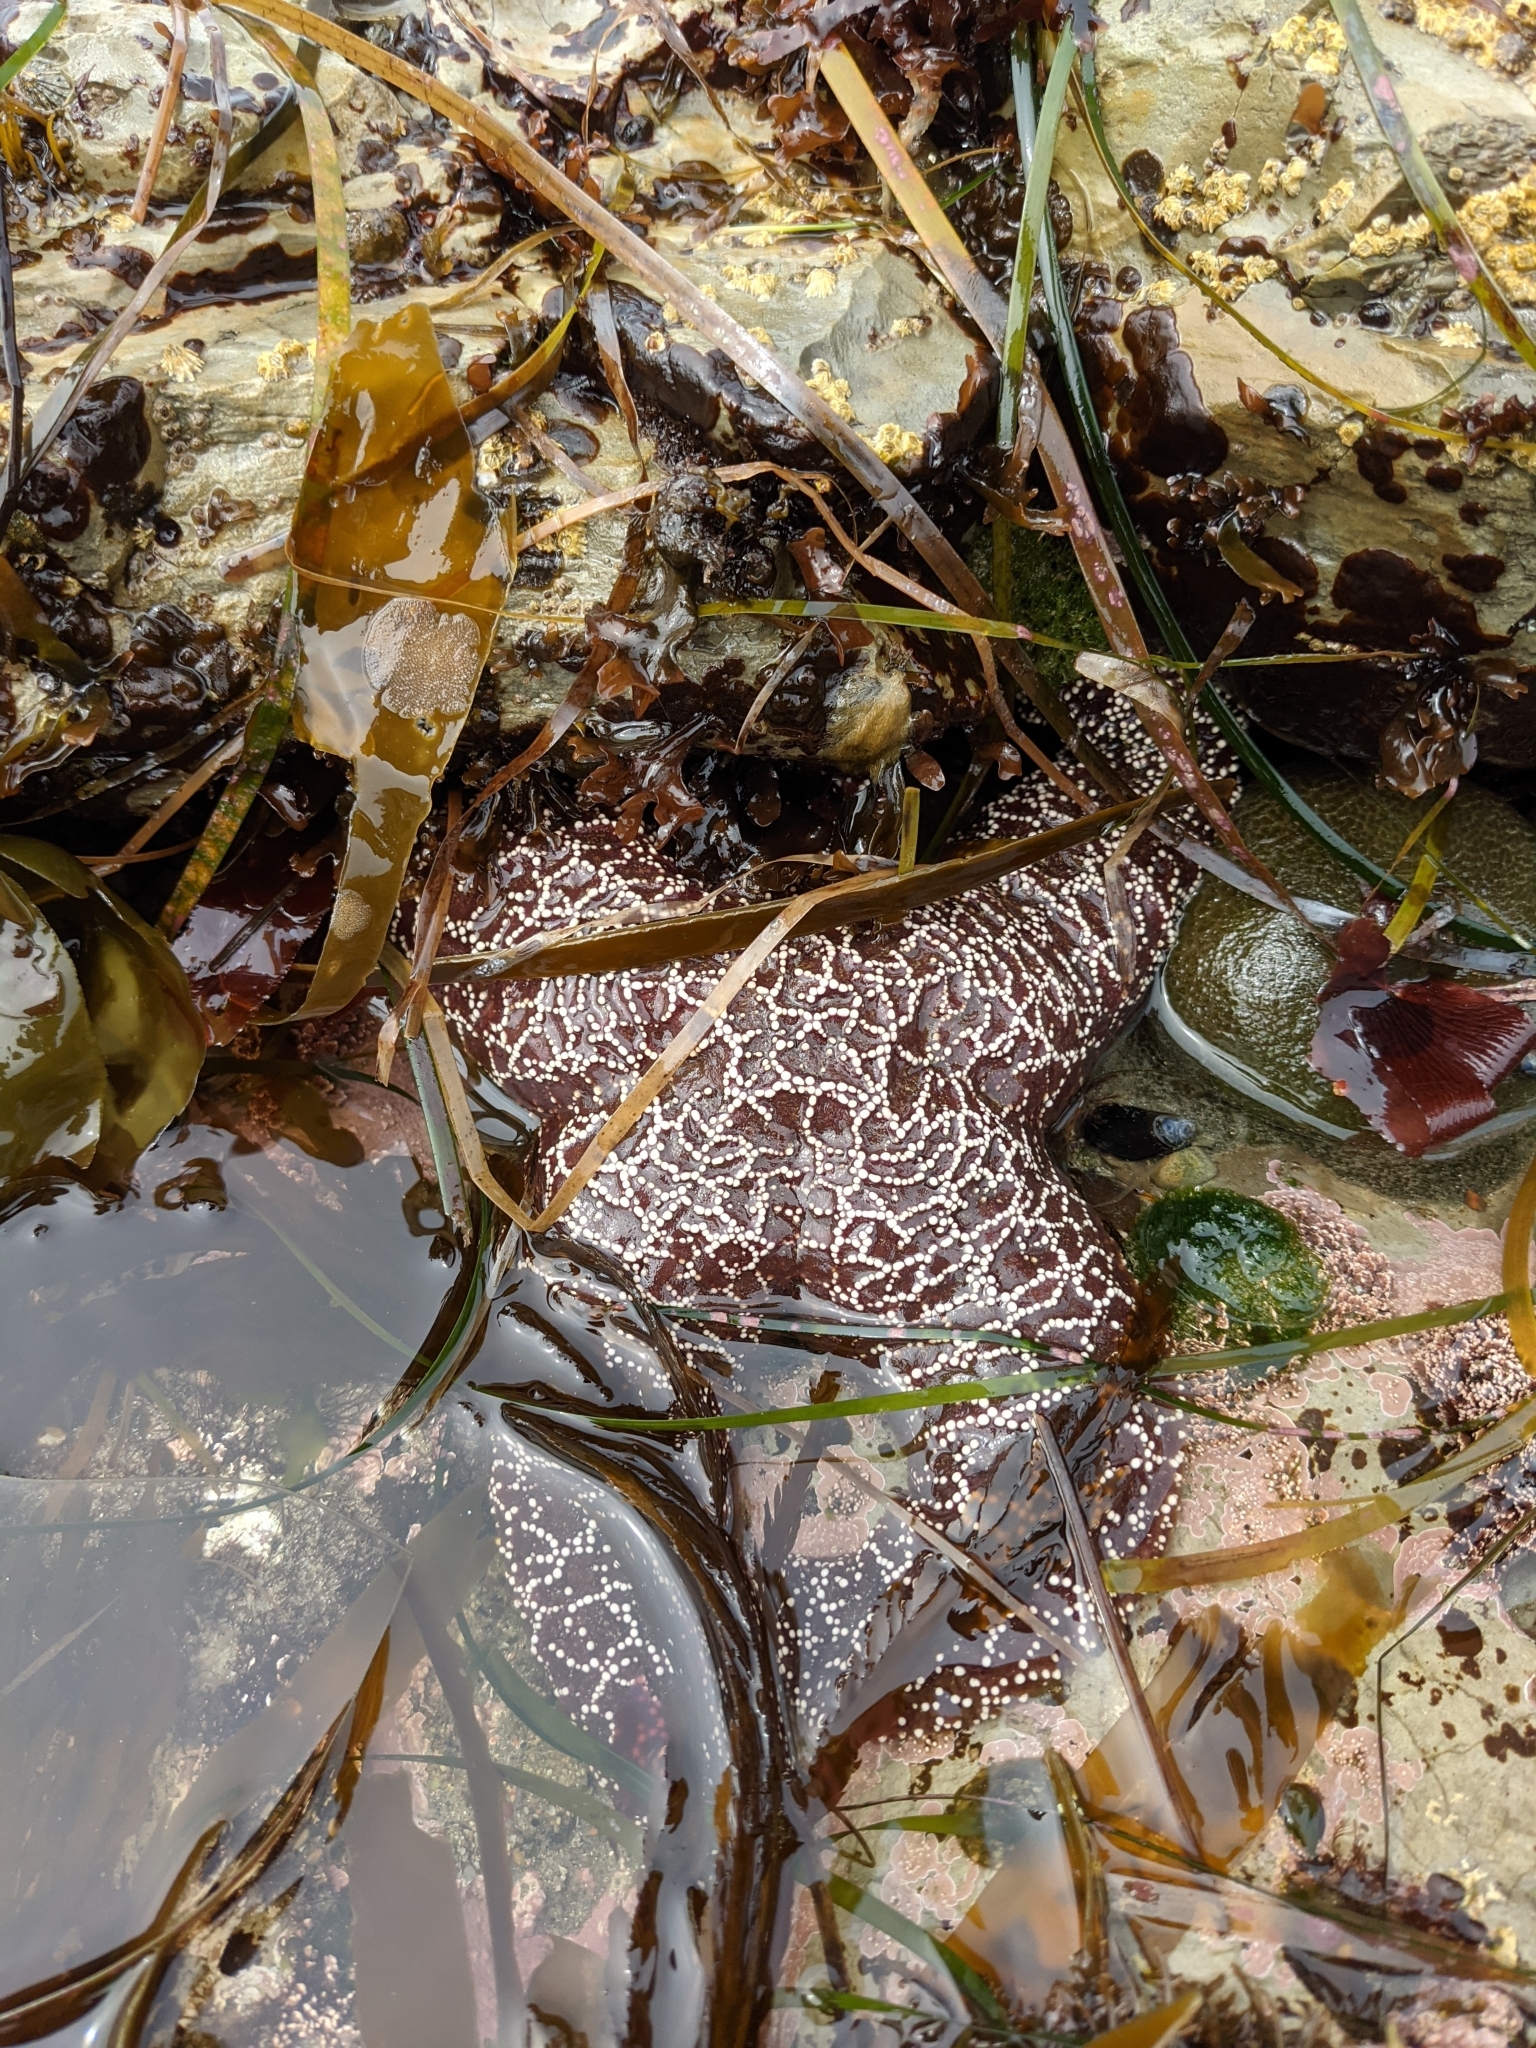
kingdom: Animalia
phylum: Echinodermata
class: Asteroidea
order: Forcipulatida
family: Asteriidae
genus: Pisaster
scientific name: Pisaster ochraceus
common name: Ochre stars
